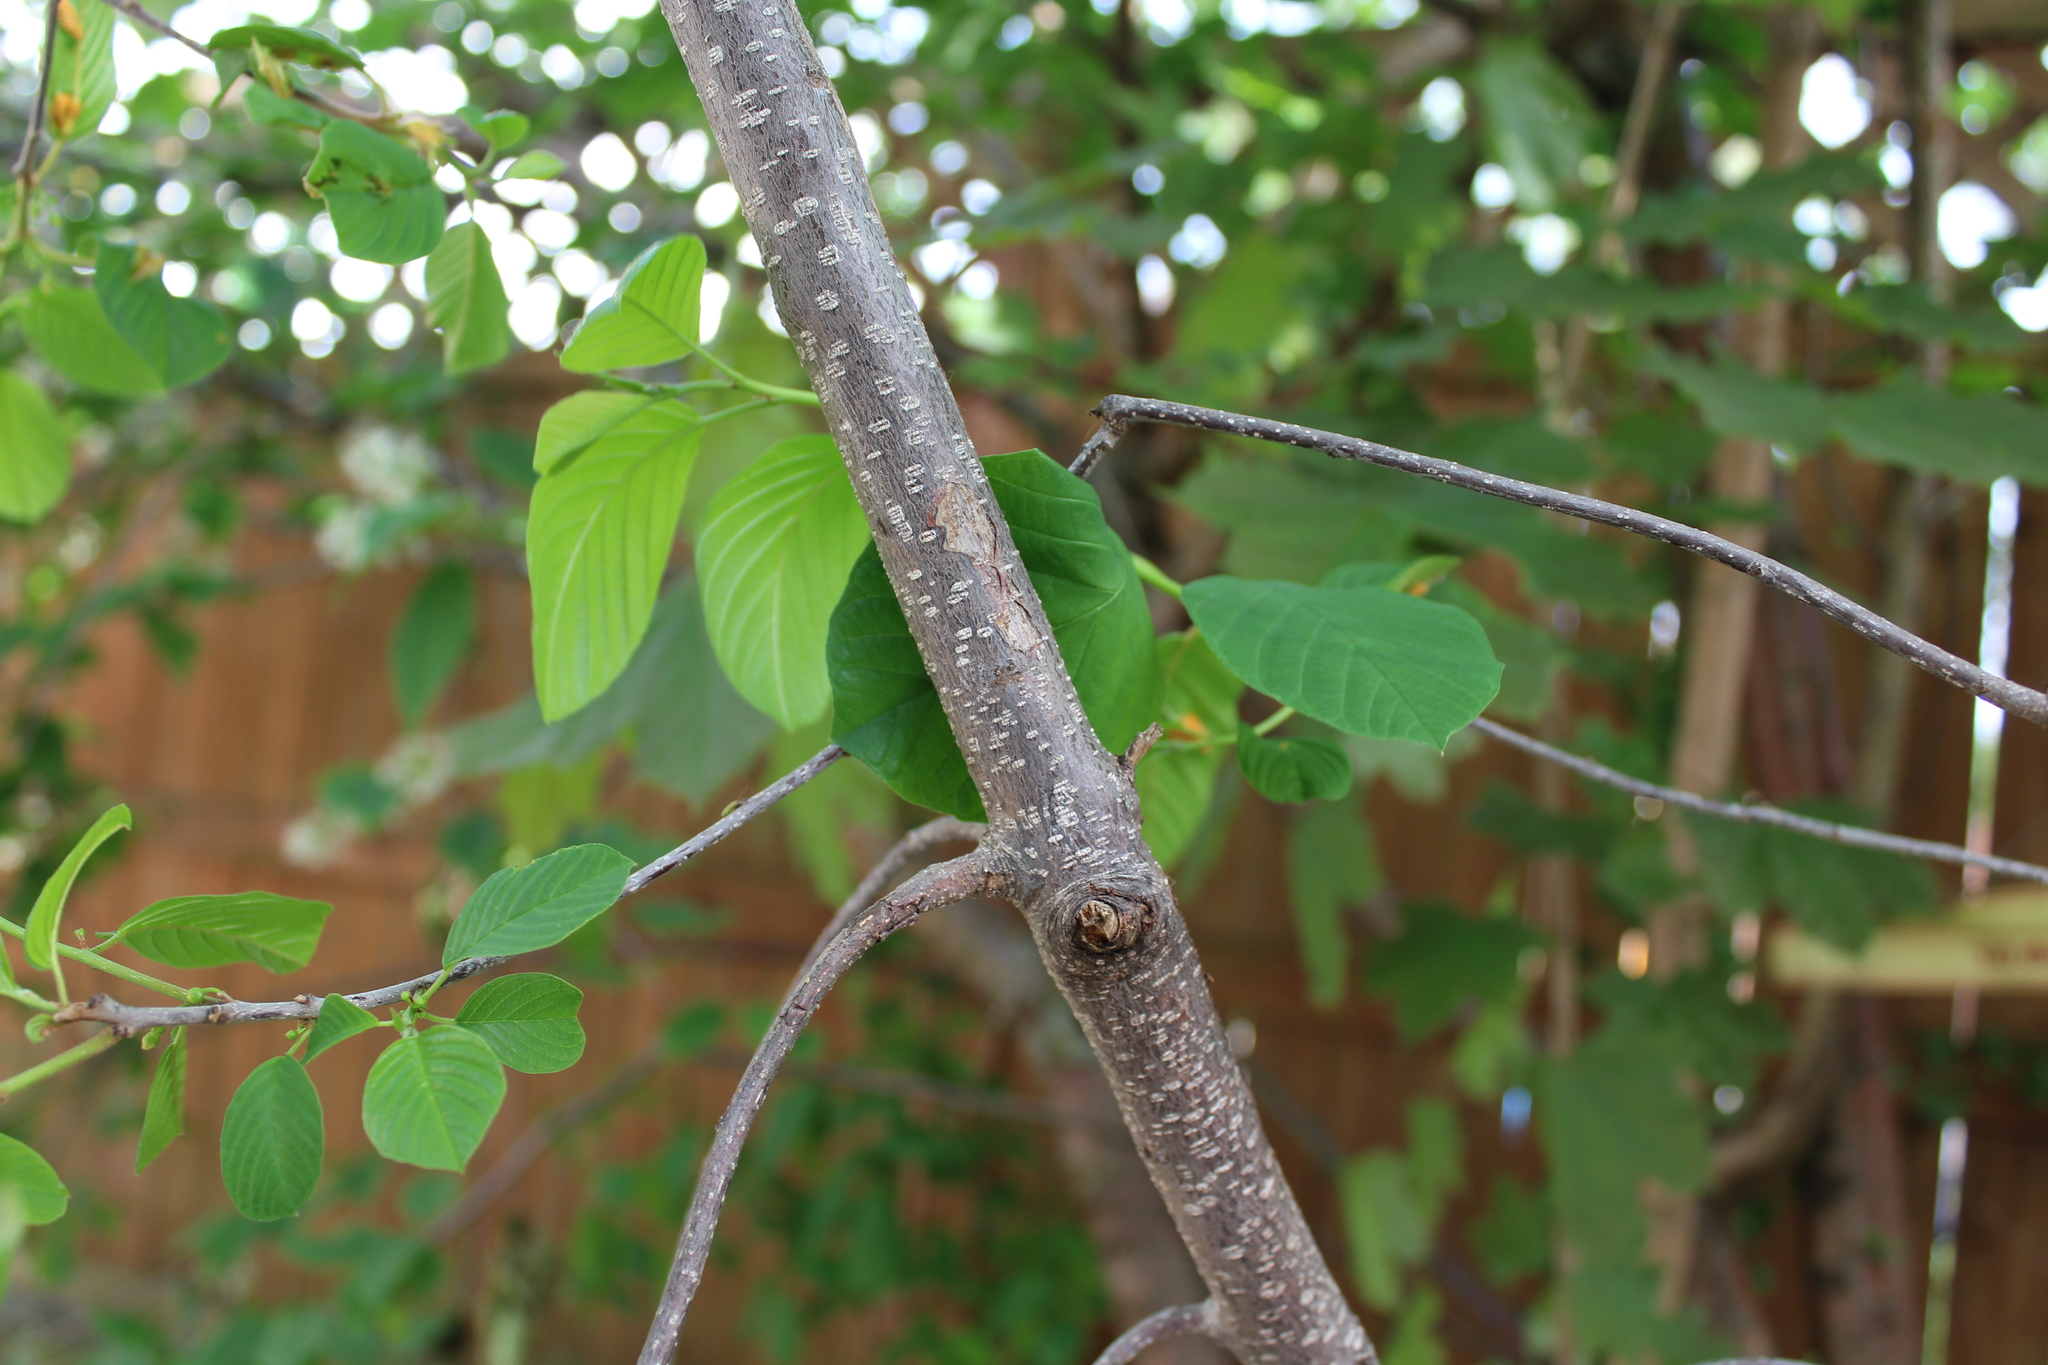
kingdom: Plantae
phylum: Tracheophyta
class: Magnoliopsida
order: Rosales
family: Rhamnaceae
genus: Frangula
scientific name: Frangula alnus
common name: Alder buckthorn
